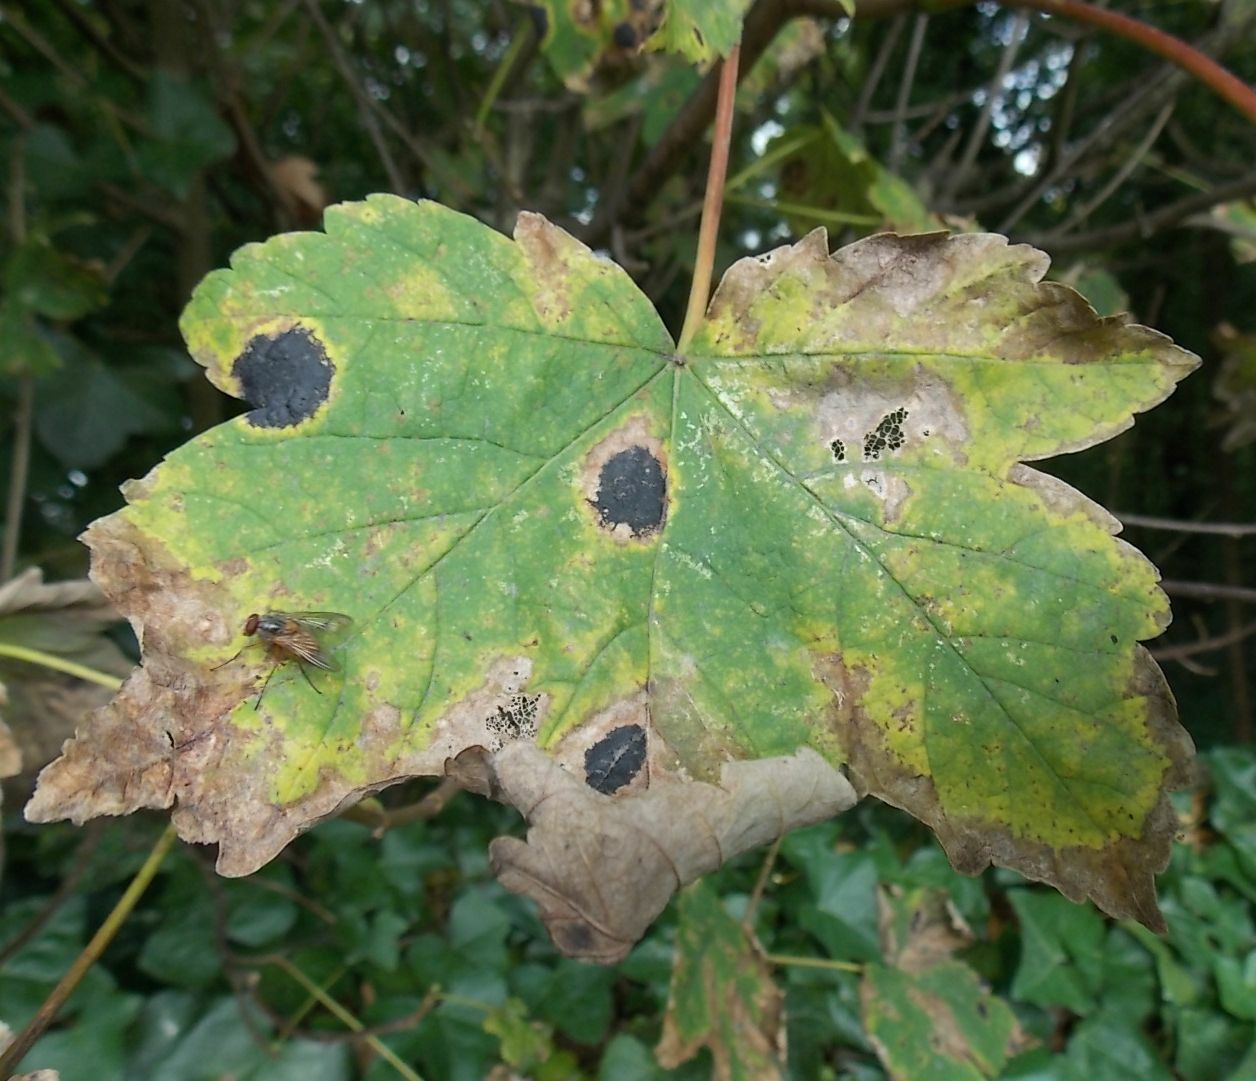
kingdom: Plantae
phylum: Tracheophyta
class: Magnoliopsida
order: Sapindales
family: Sapindaceae
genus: Acer
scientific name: Acer pseudoplatanus
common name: Sycamore
